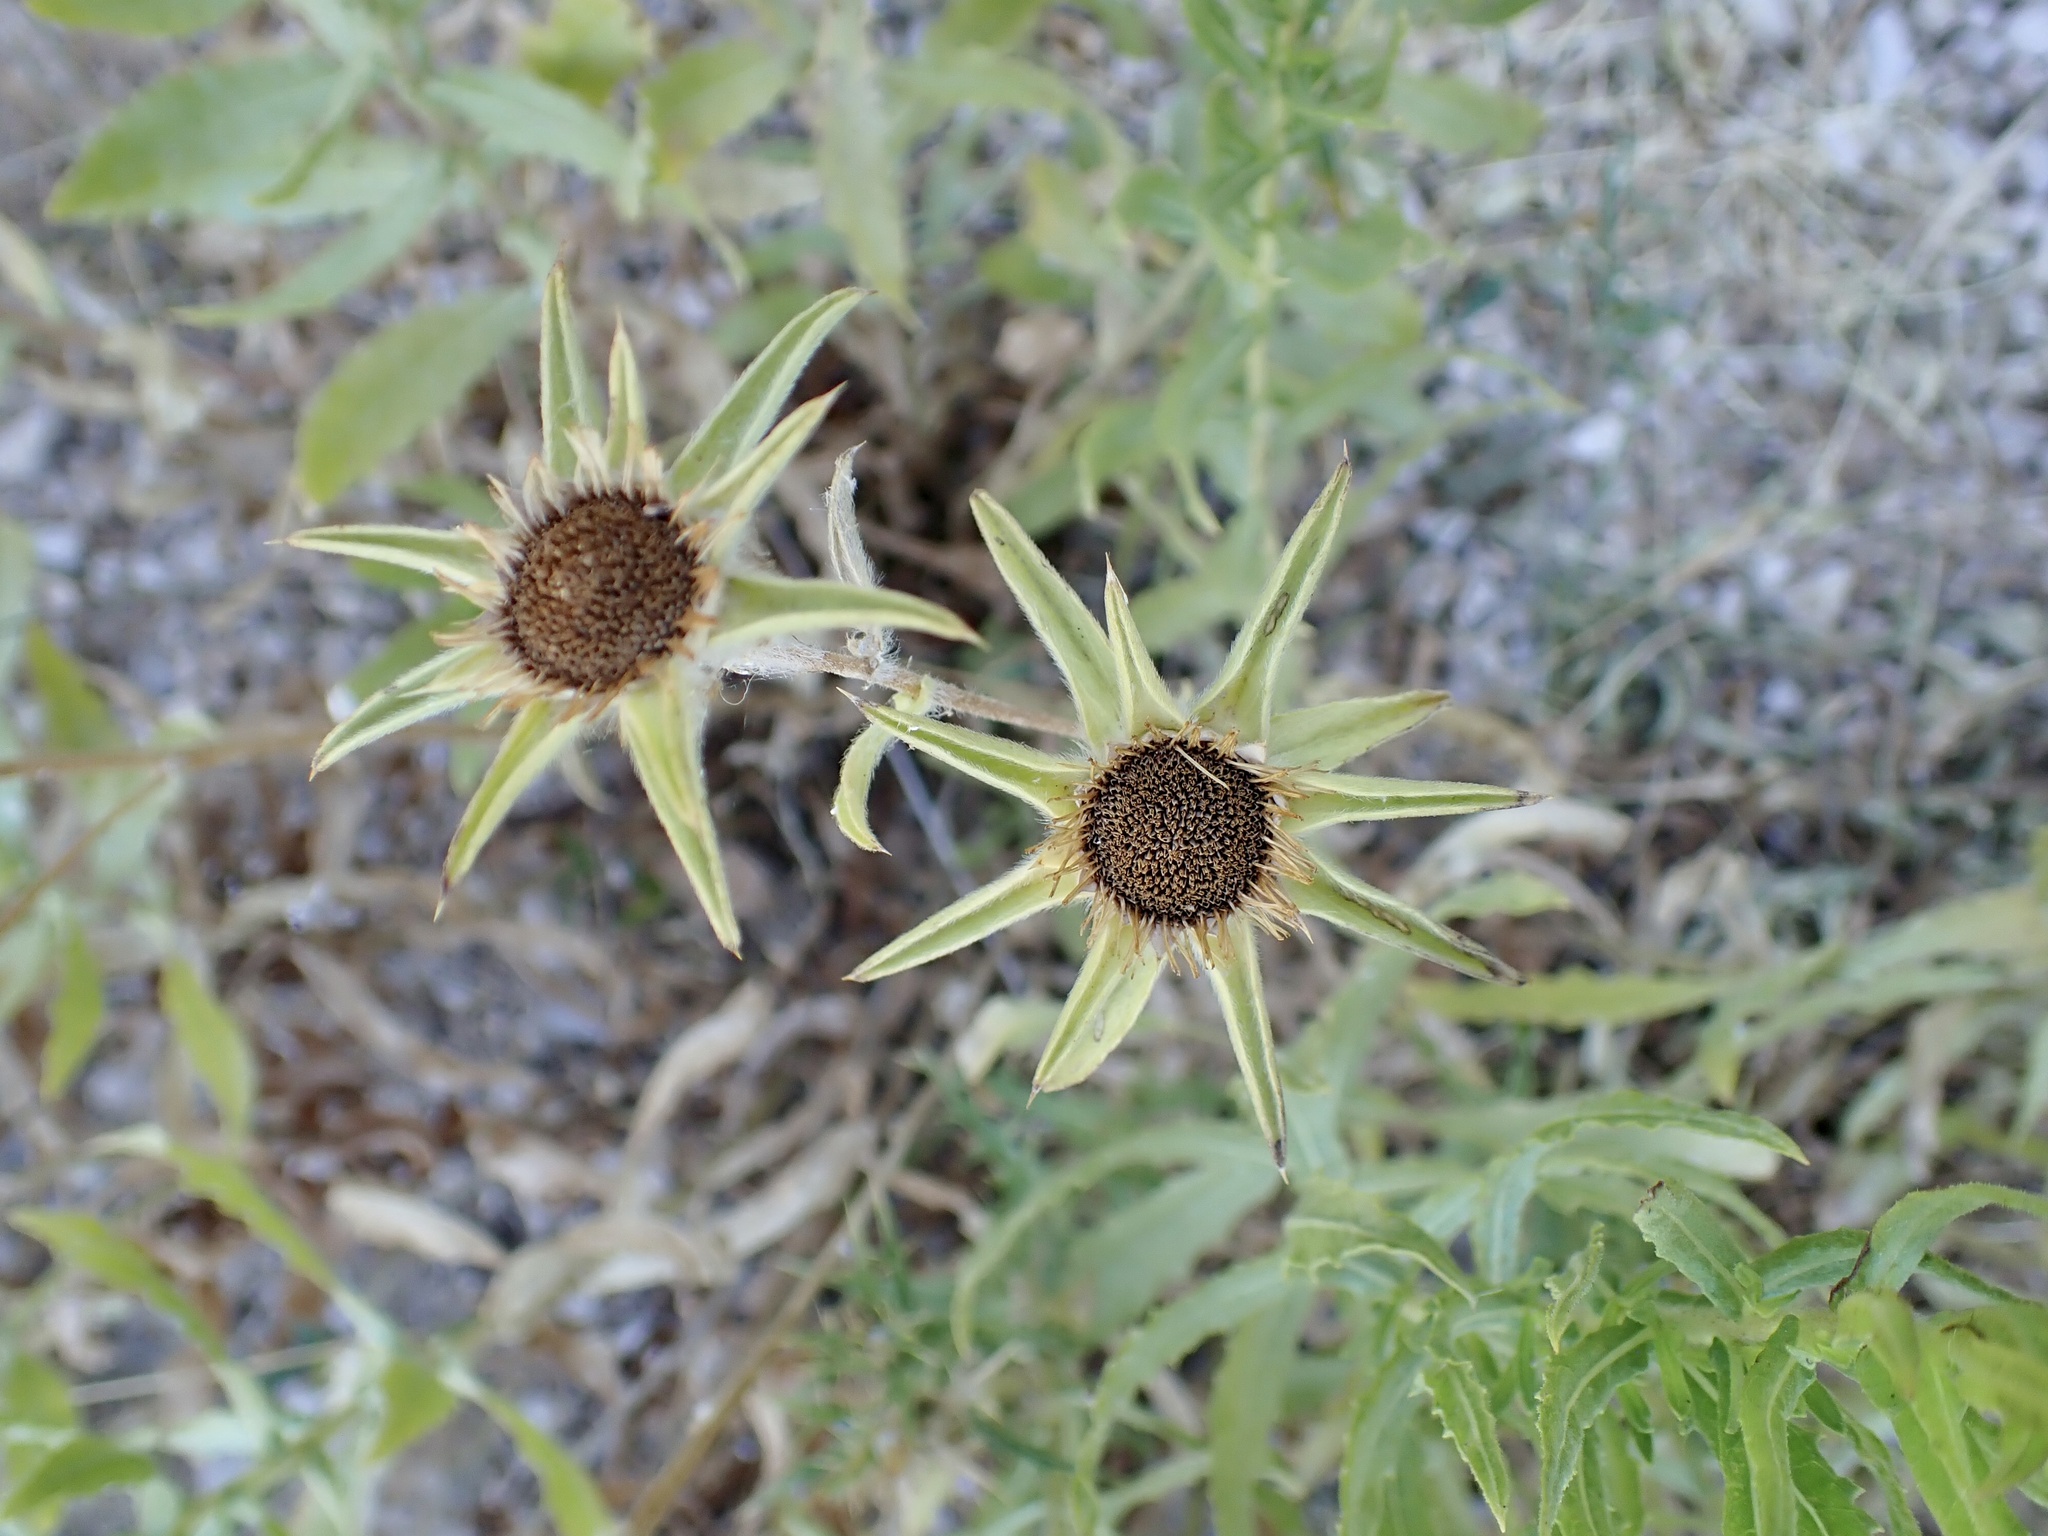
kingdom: Plantae
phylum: Tracheophyta
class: Magnoliopsida
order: Asterales
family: Asteraceae
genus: Pallenis
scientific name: Pallenis spinosa
